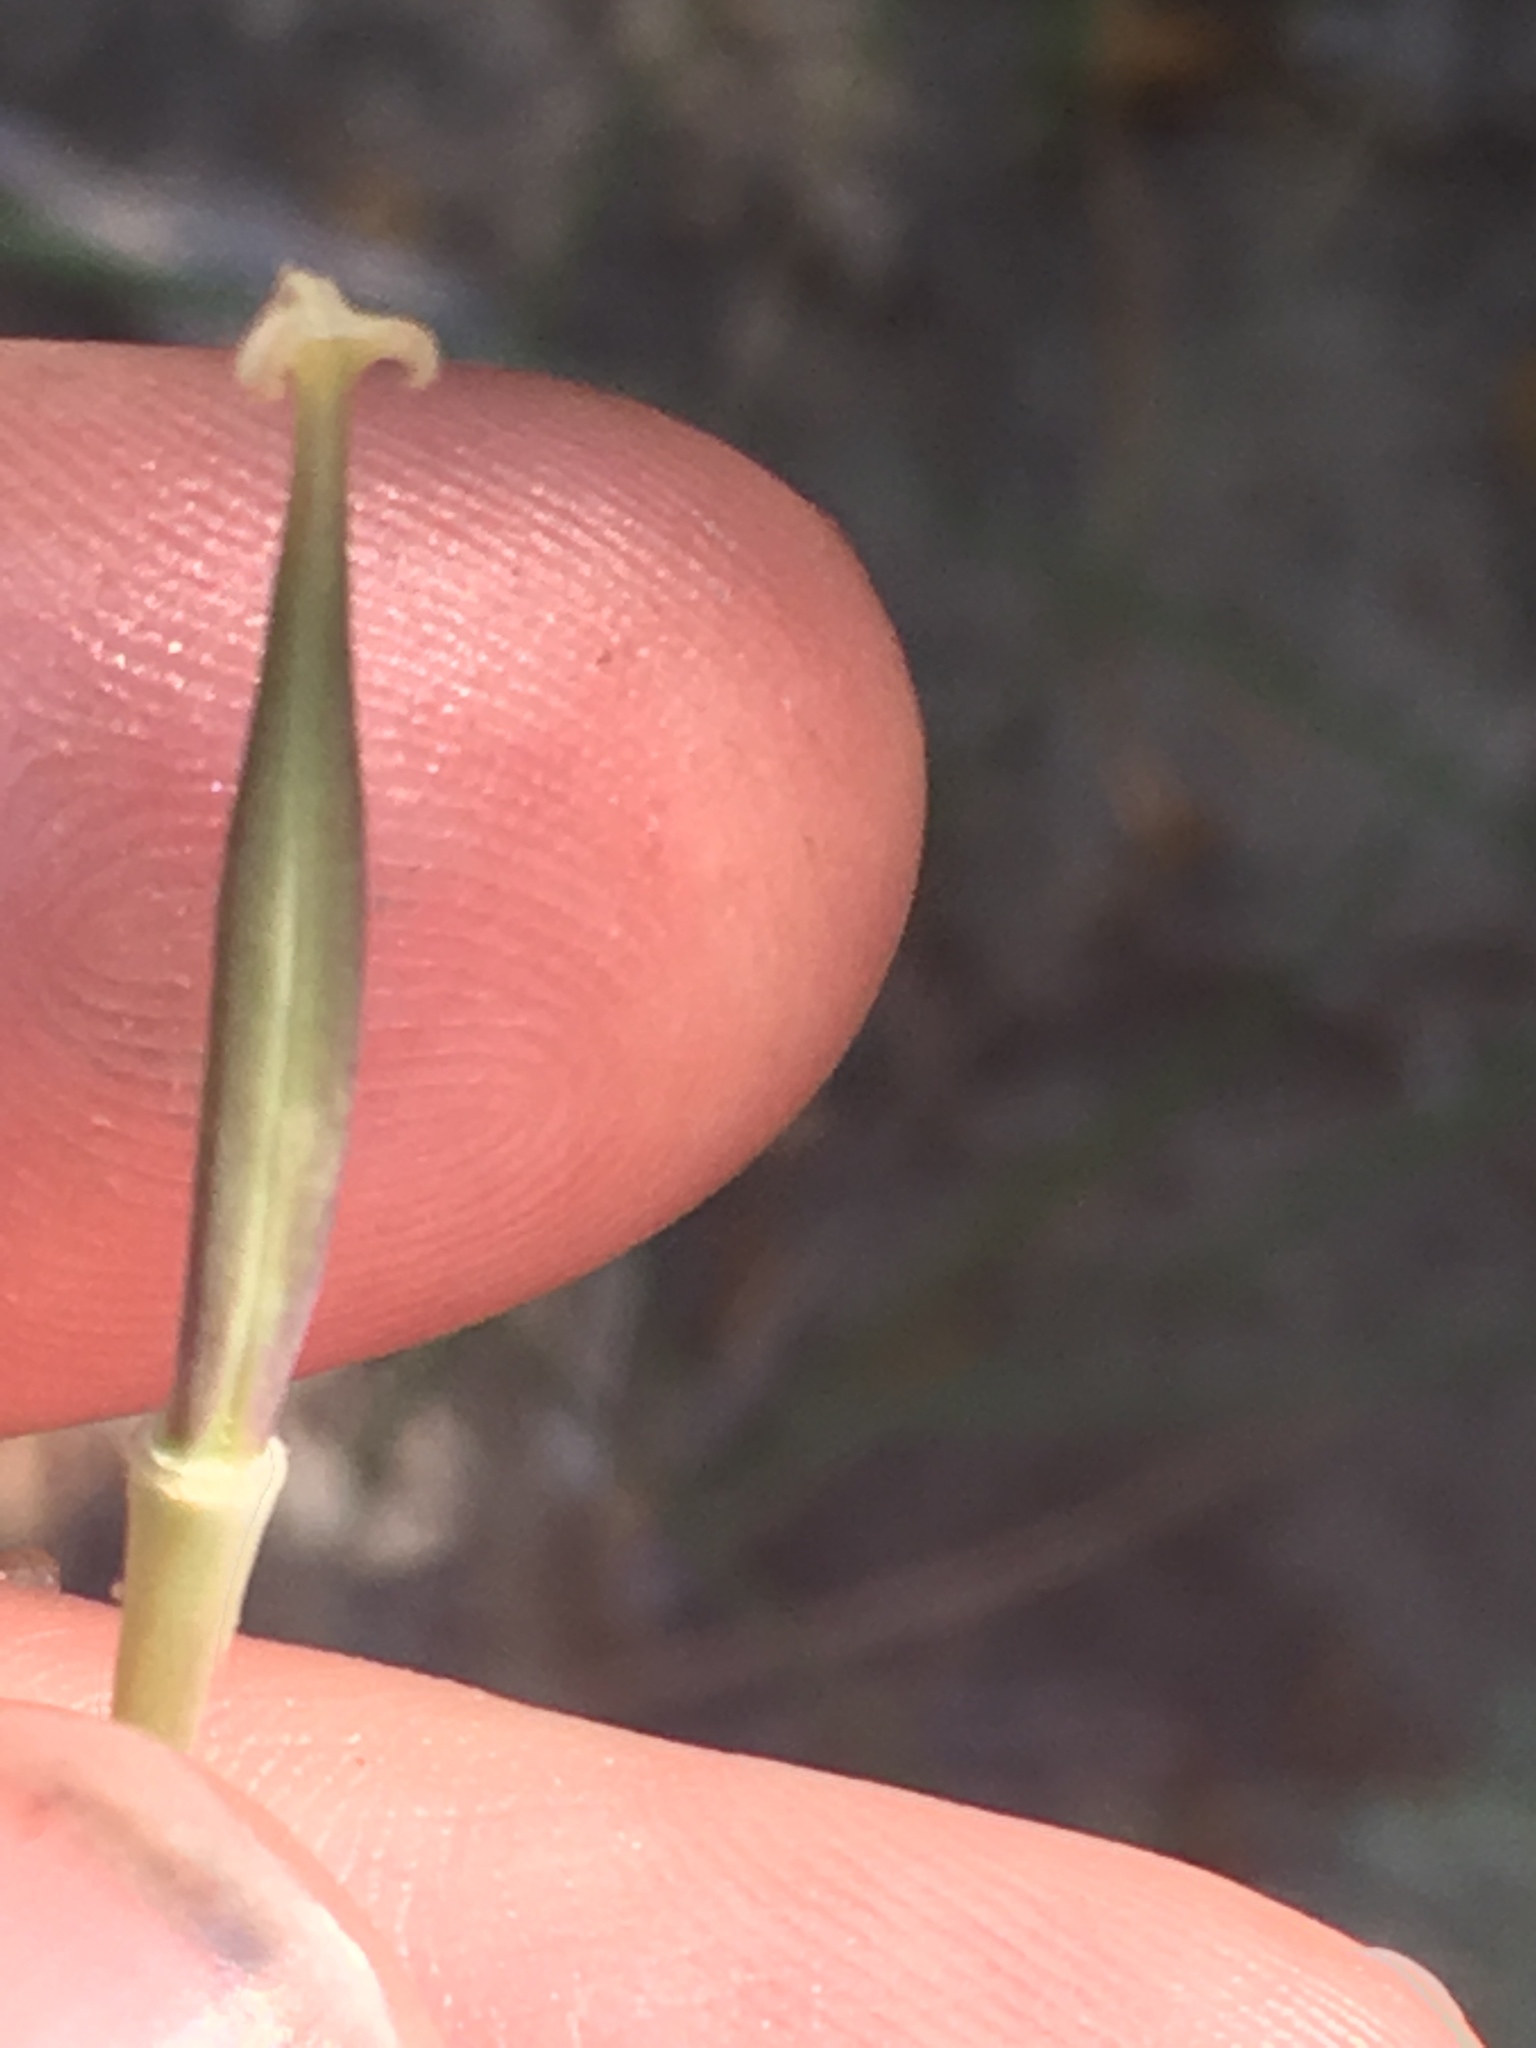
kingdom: Plantae
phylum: Tracheophyta
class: Liliopsida
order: Liliales
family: Liliaceae
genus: Calochortus
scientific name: Calochortus palmeri
